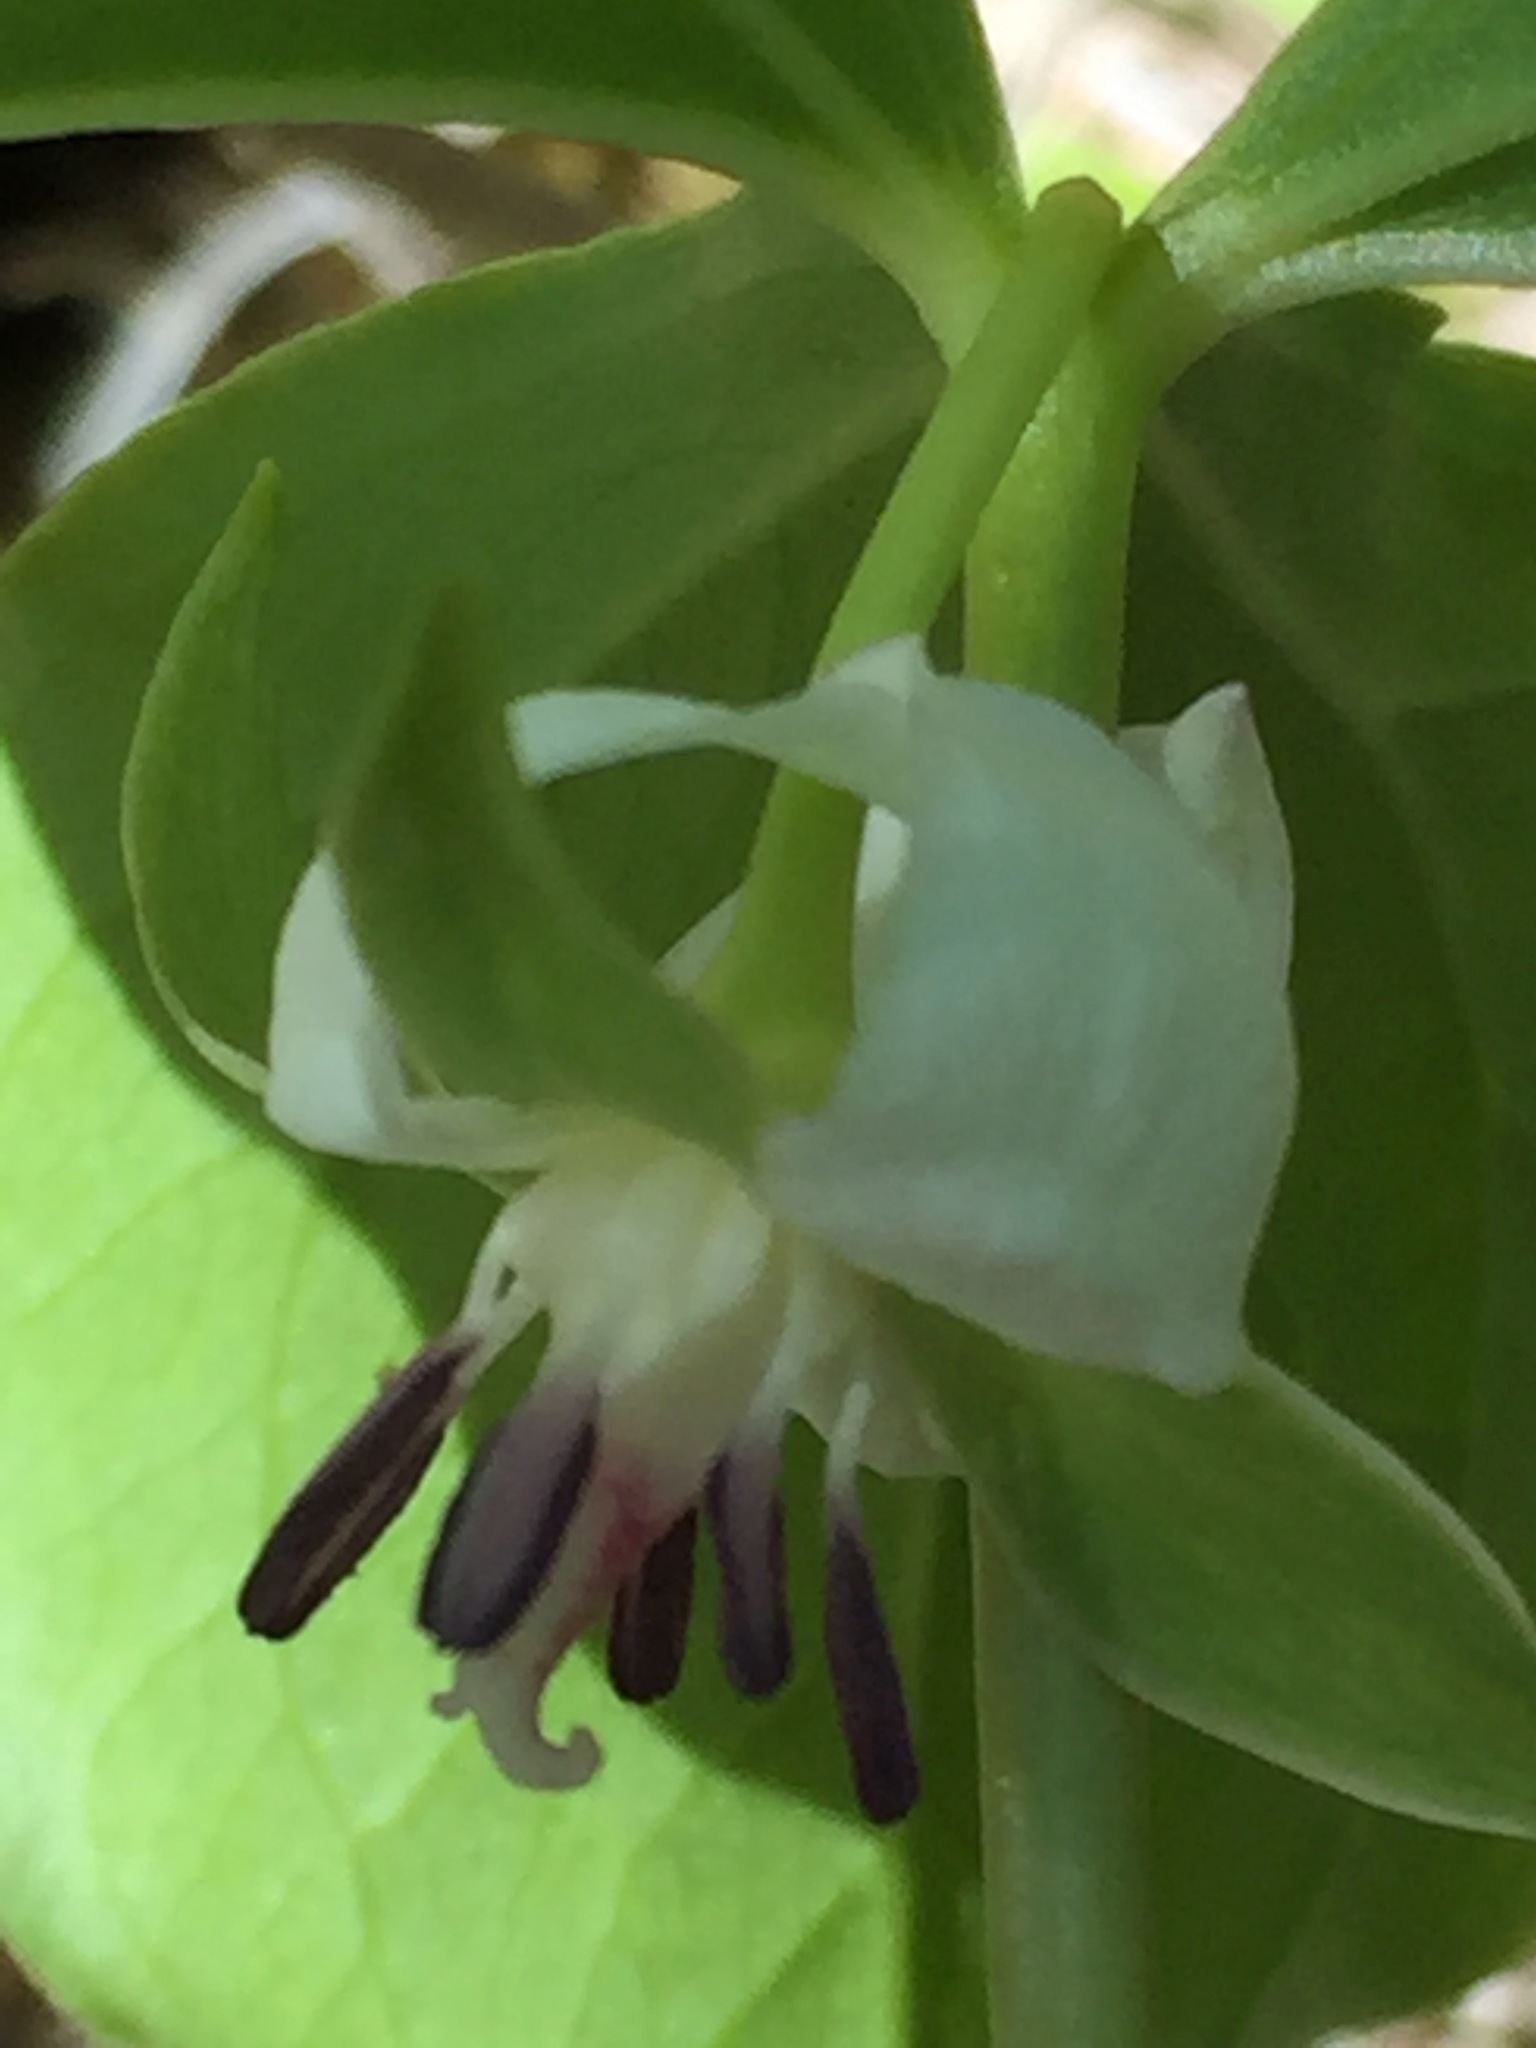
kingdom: Plantae
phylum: Tracheophyta
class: Liliopsida
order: Liliales
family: Melanthiaceae
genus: Trillium
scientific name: Trillium cernuum
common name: Nodding trillium
